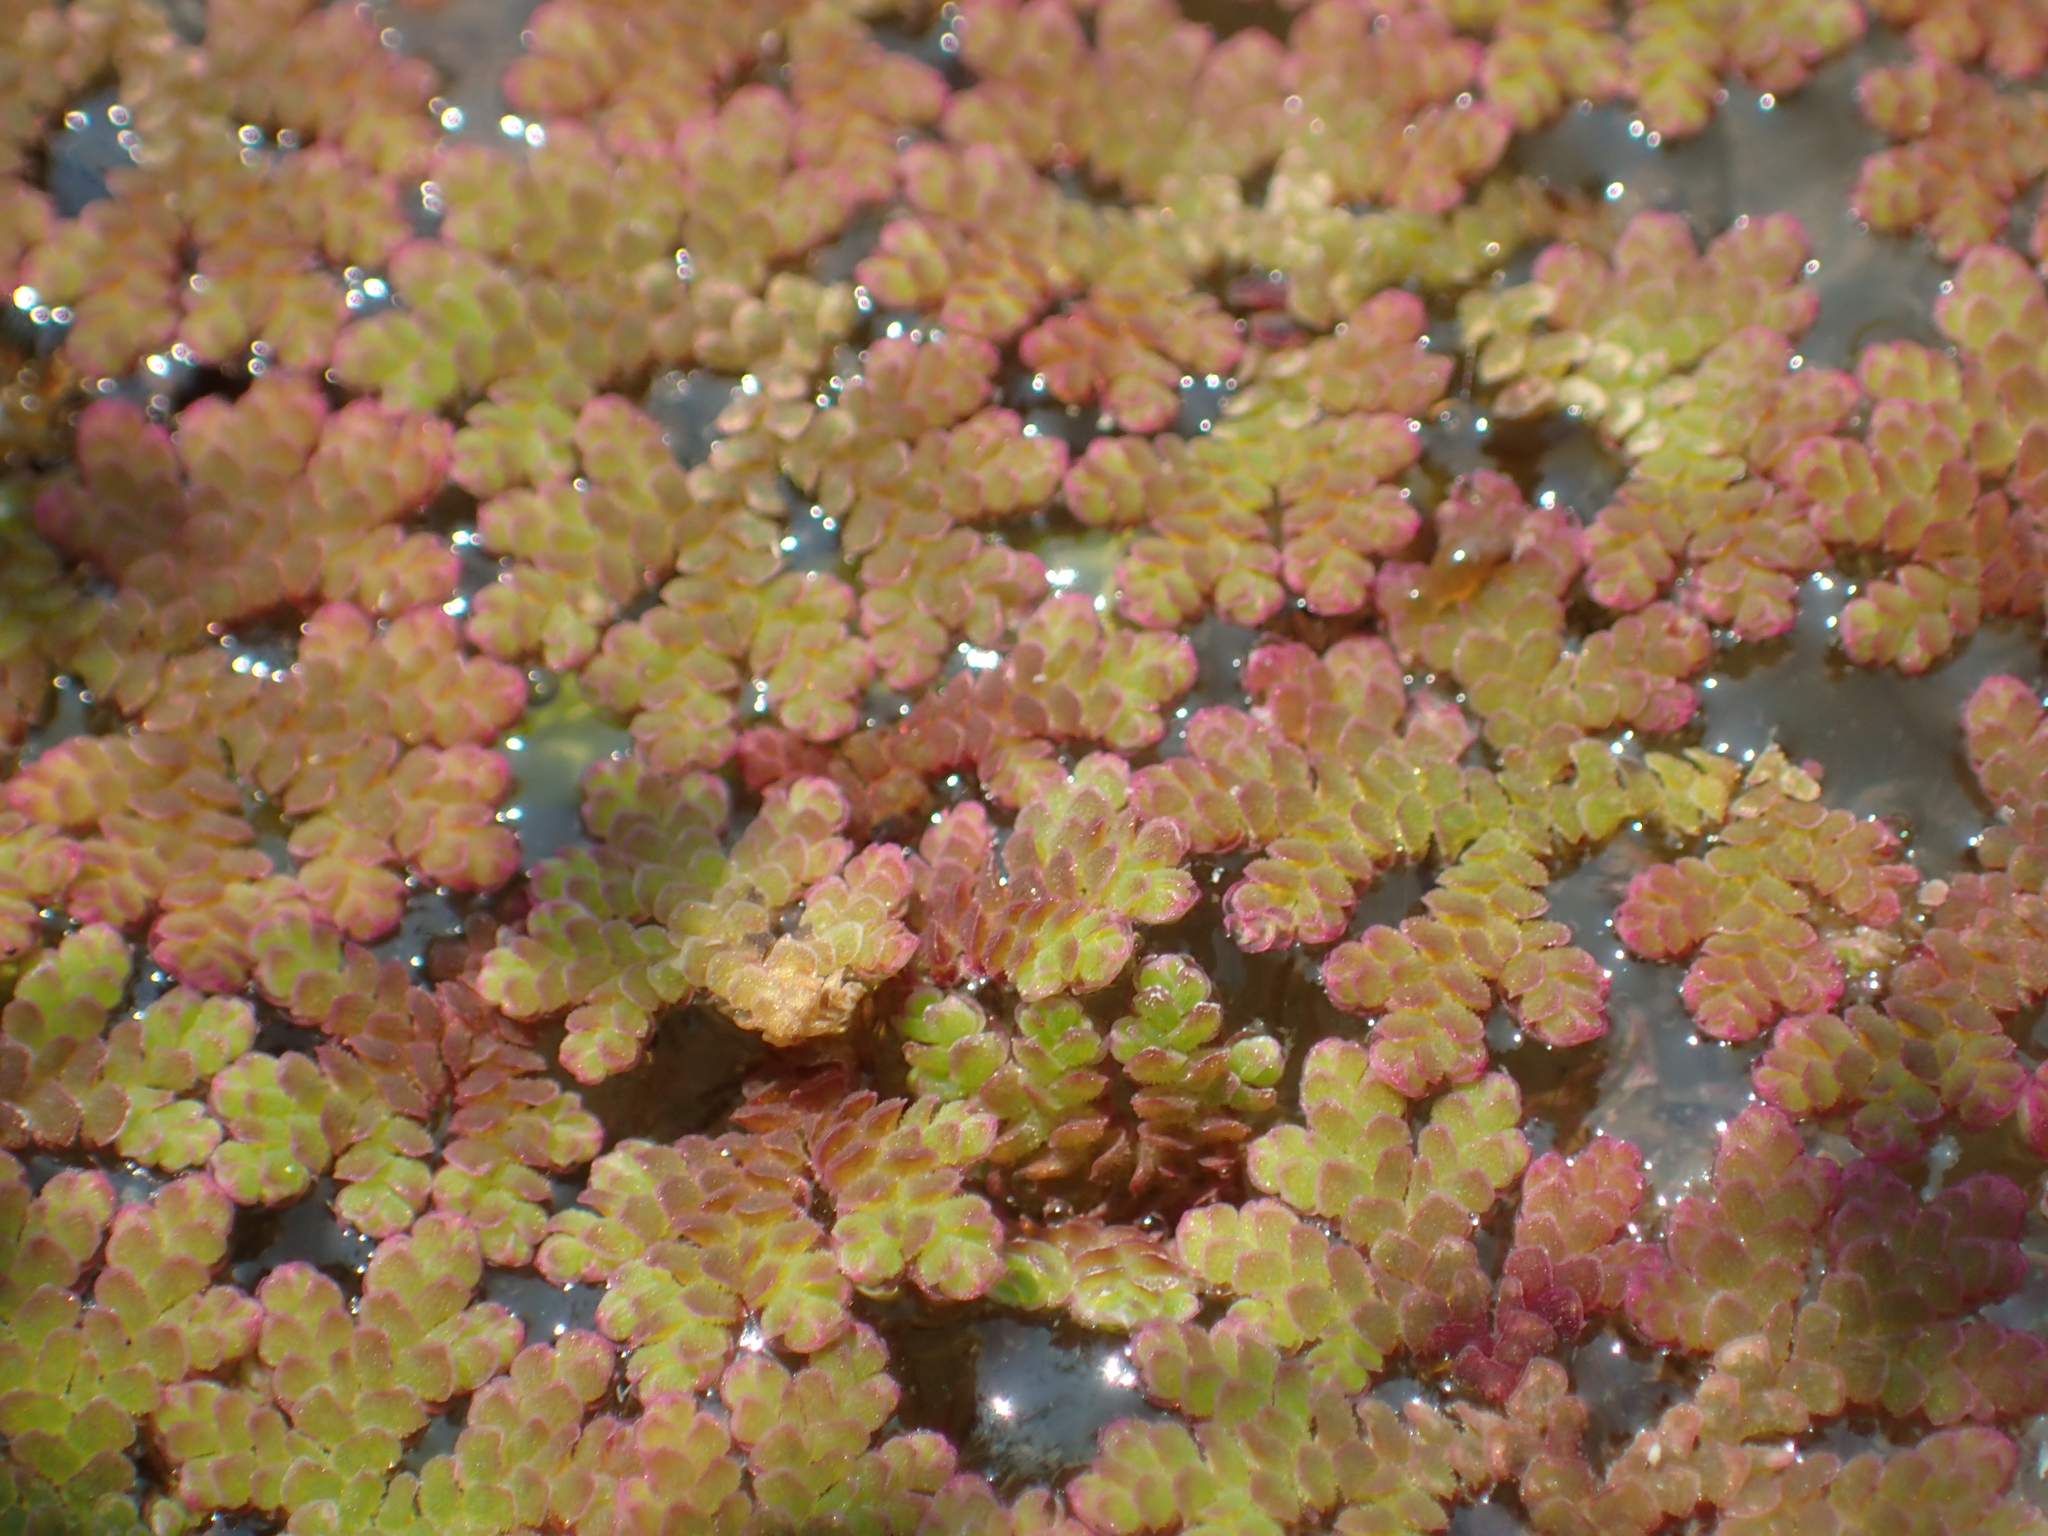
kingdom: Plantae
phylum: Tracheophyta
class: Polypodiopsida
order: Salviniales
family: Salviniaceae
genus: Azolla
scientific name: Azolla filiculoides
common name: Water fern
